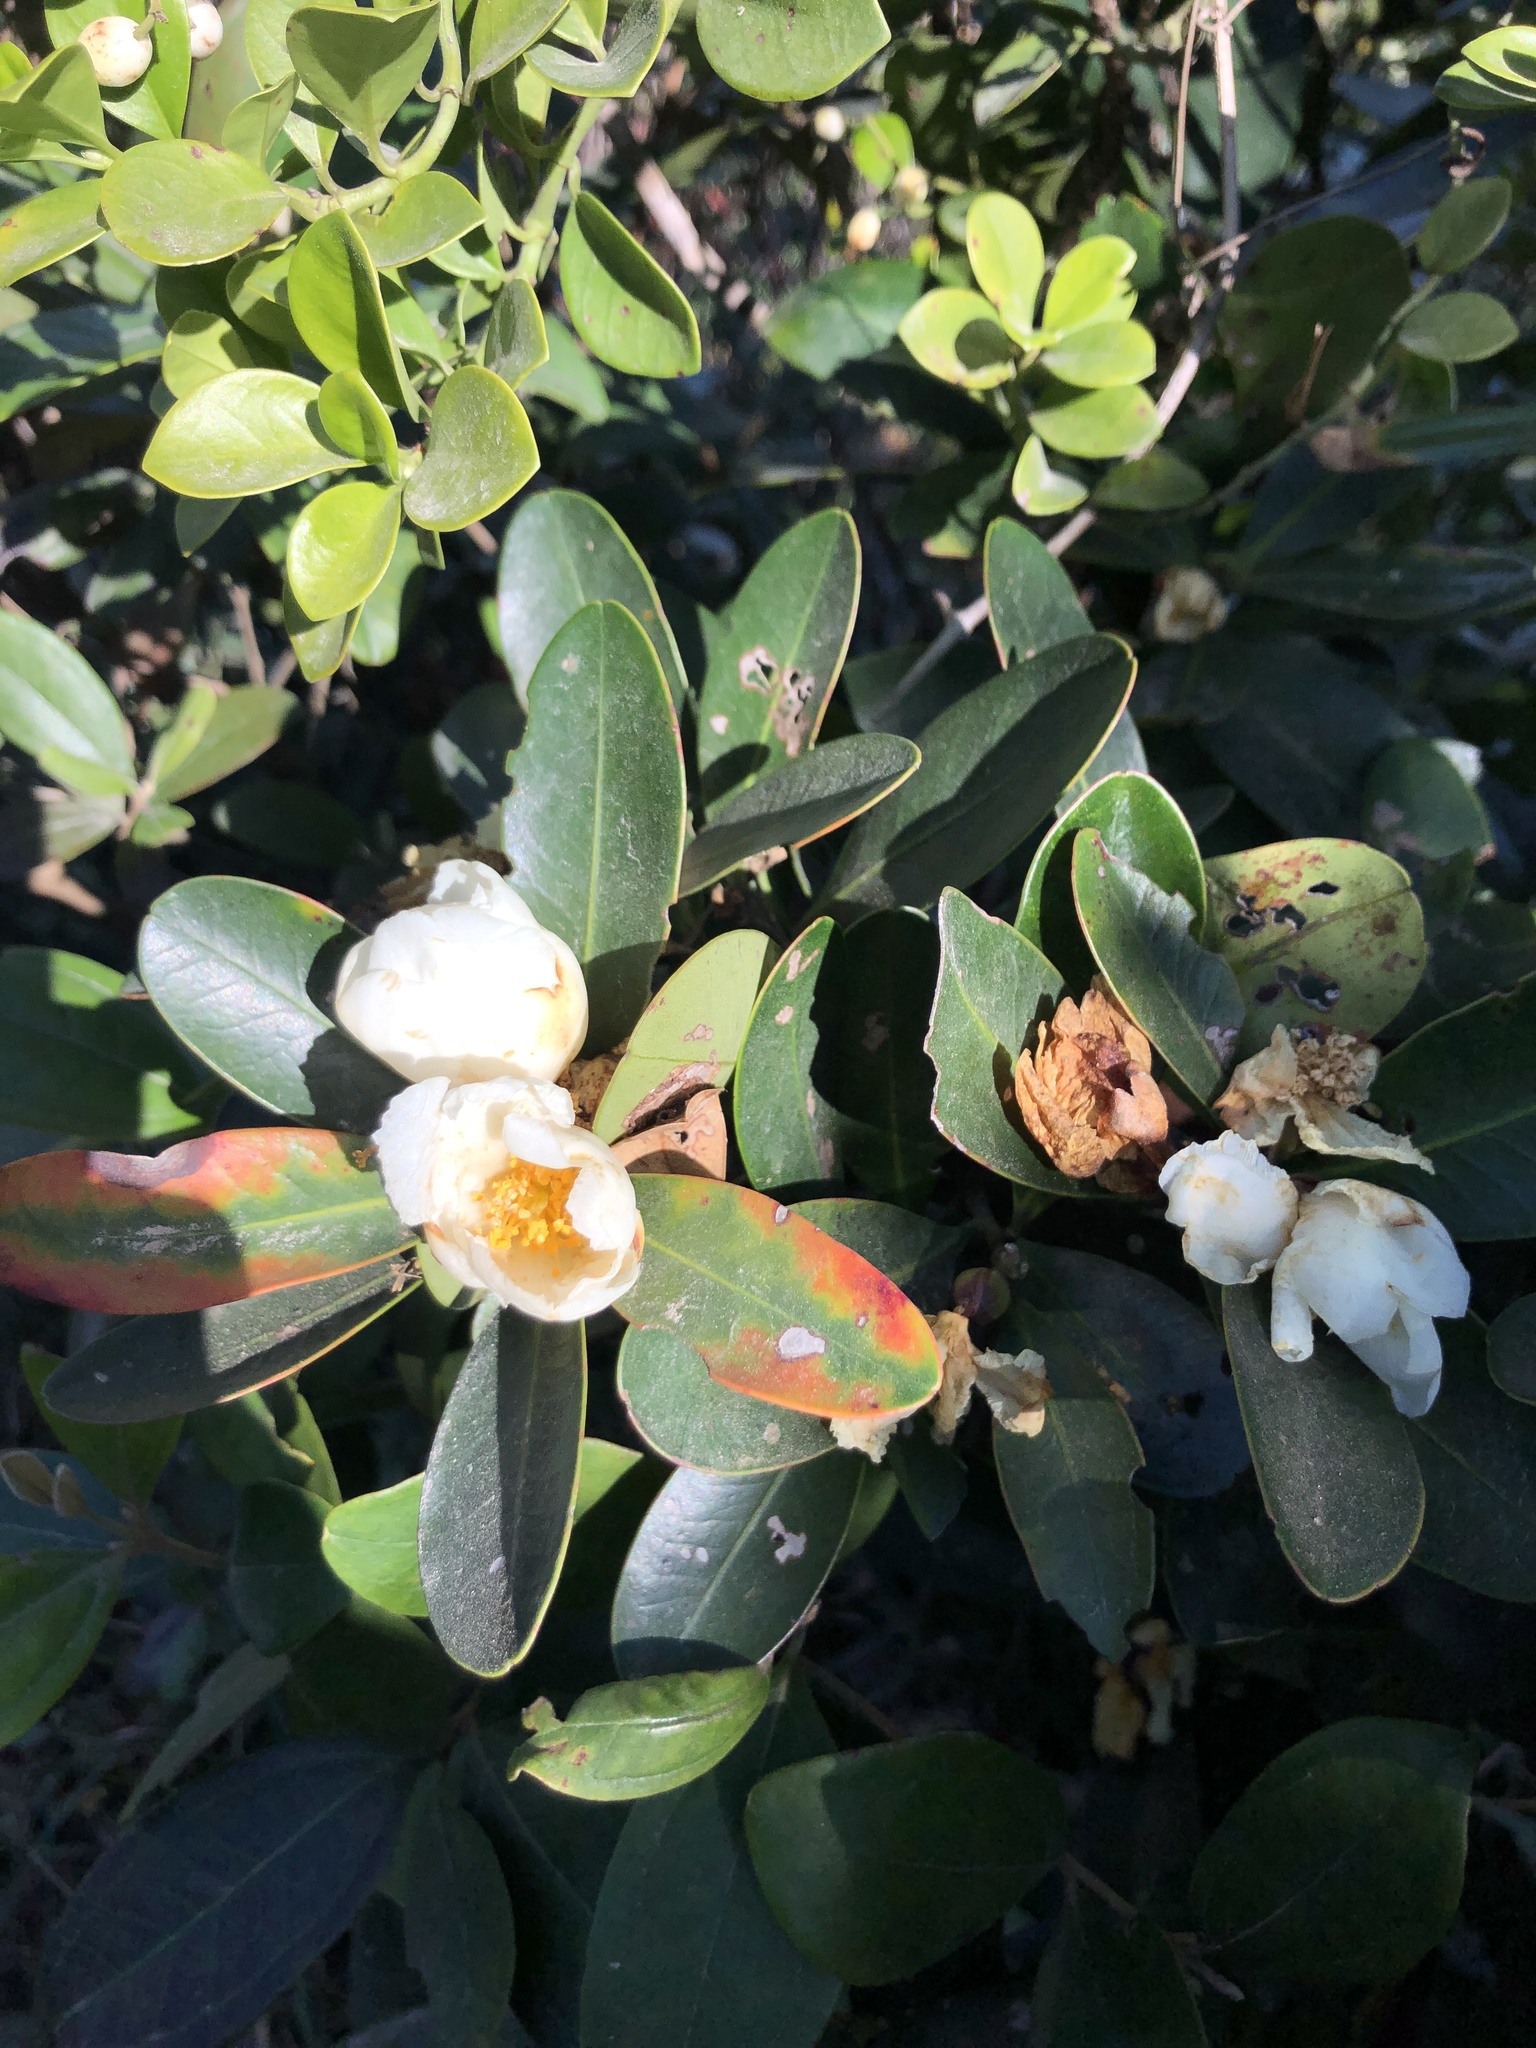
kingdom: Plantae
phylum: Tracheophyta
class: Magnoliopsida
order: Ericales
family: Theaceae
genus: Polyspora
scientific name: Polyspora axillaris
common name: Fried egg tree
